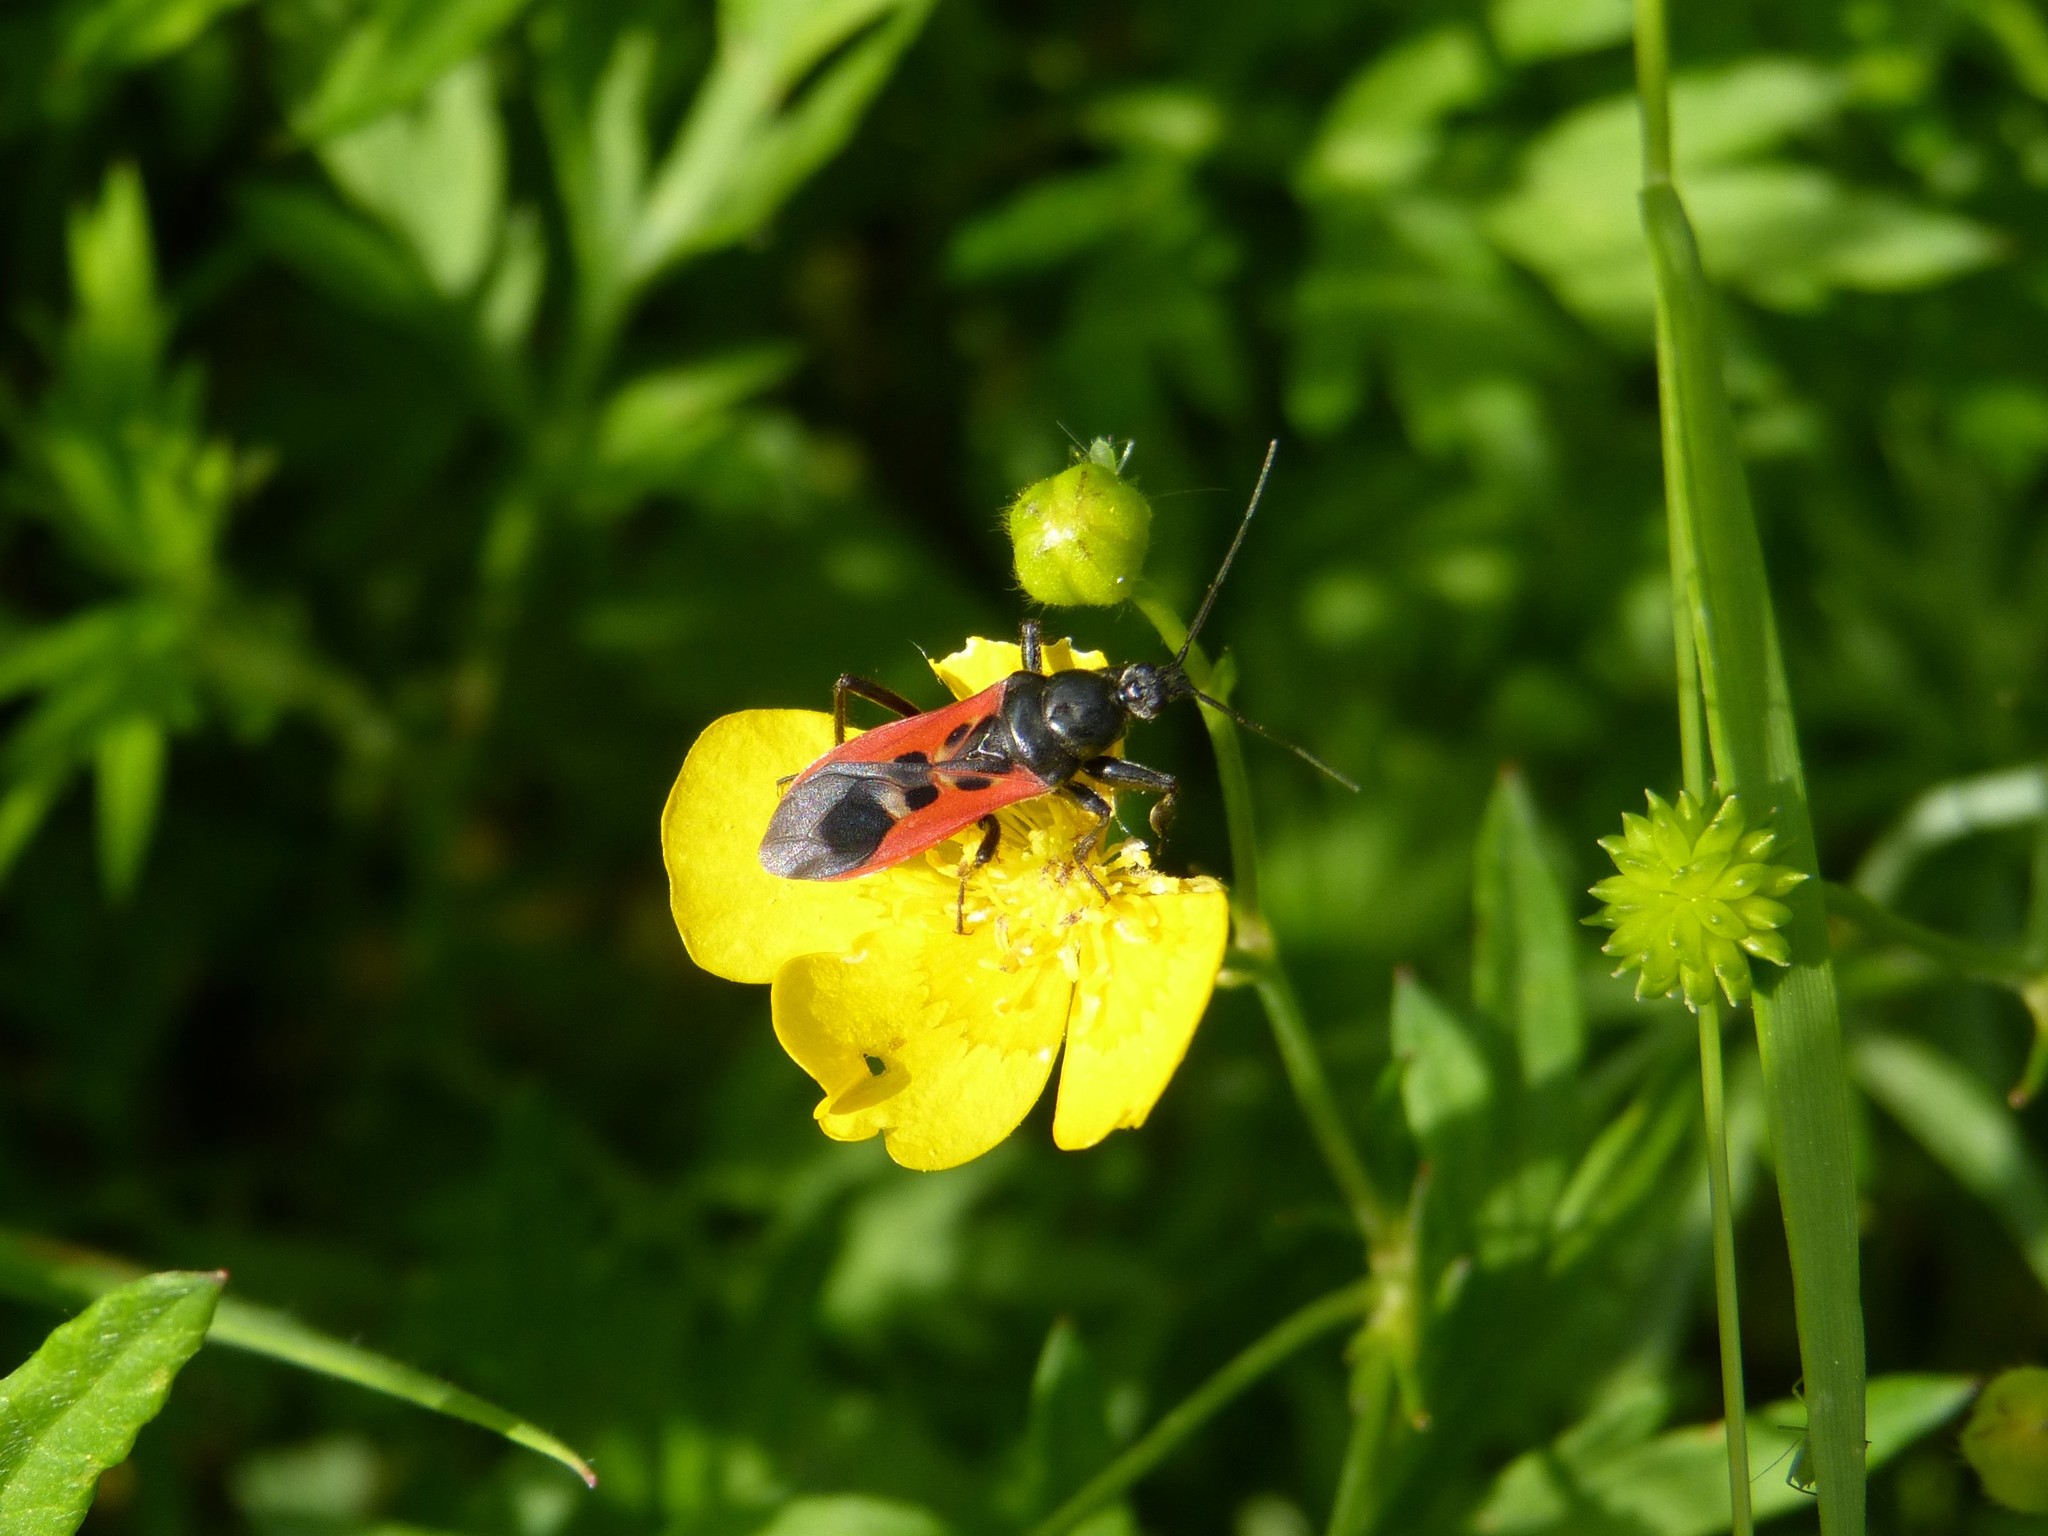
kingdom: Animalia
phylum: Arthropoda
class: Insecta
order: Hemiptera
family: Reduviidae
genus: Peirates
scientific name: Peirates hybridus
